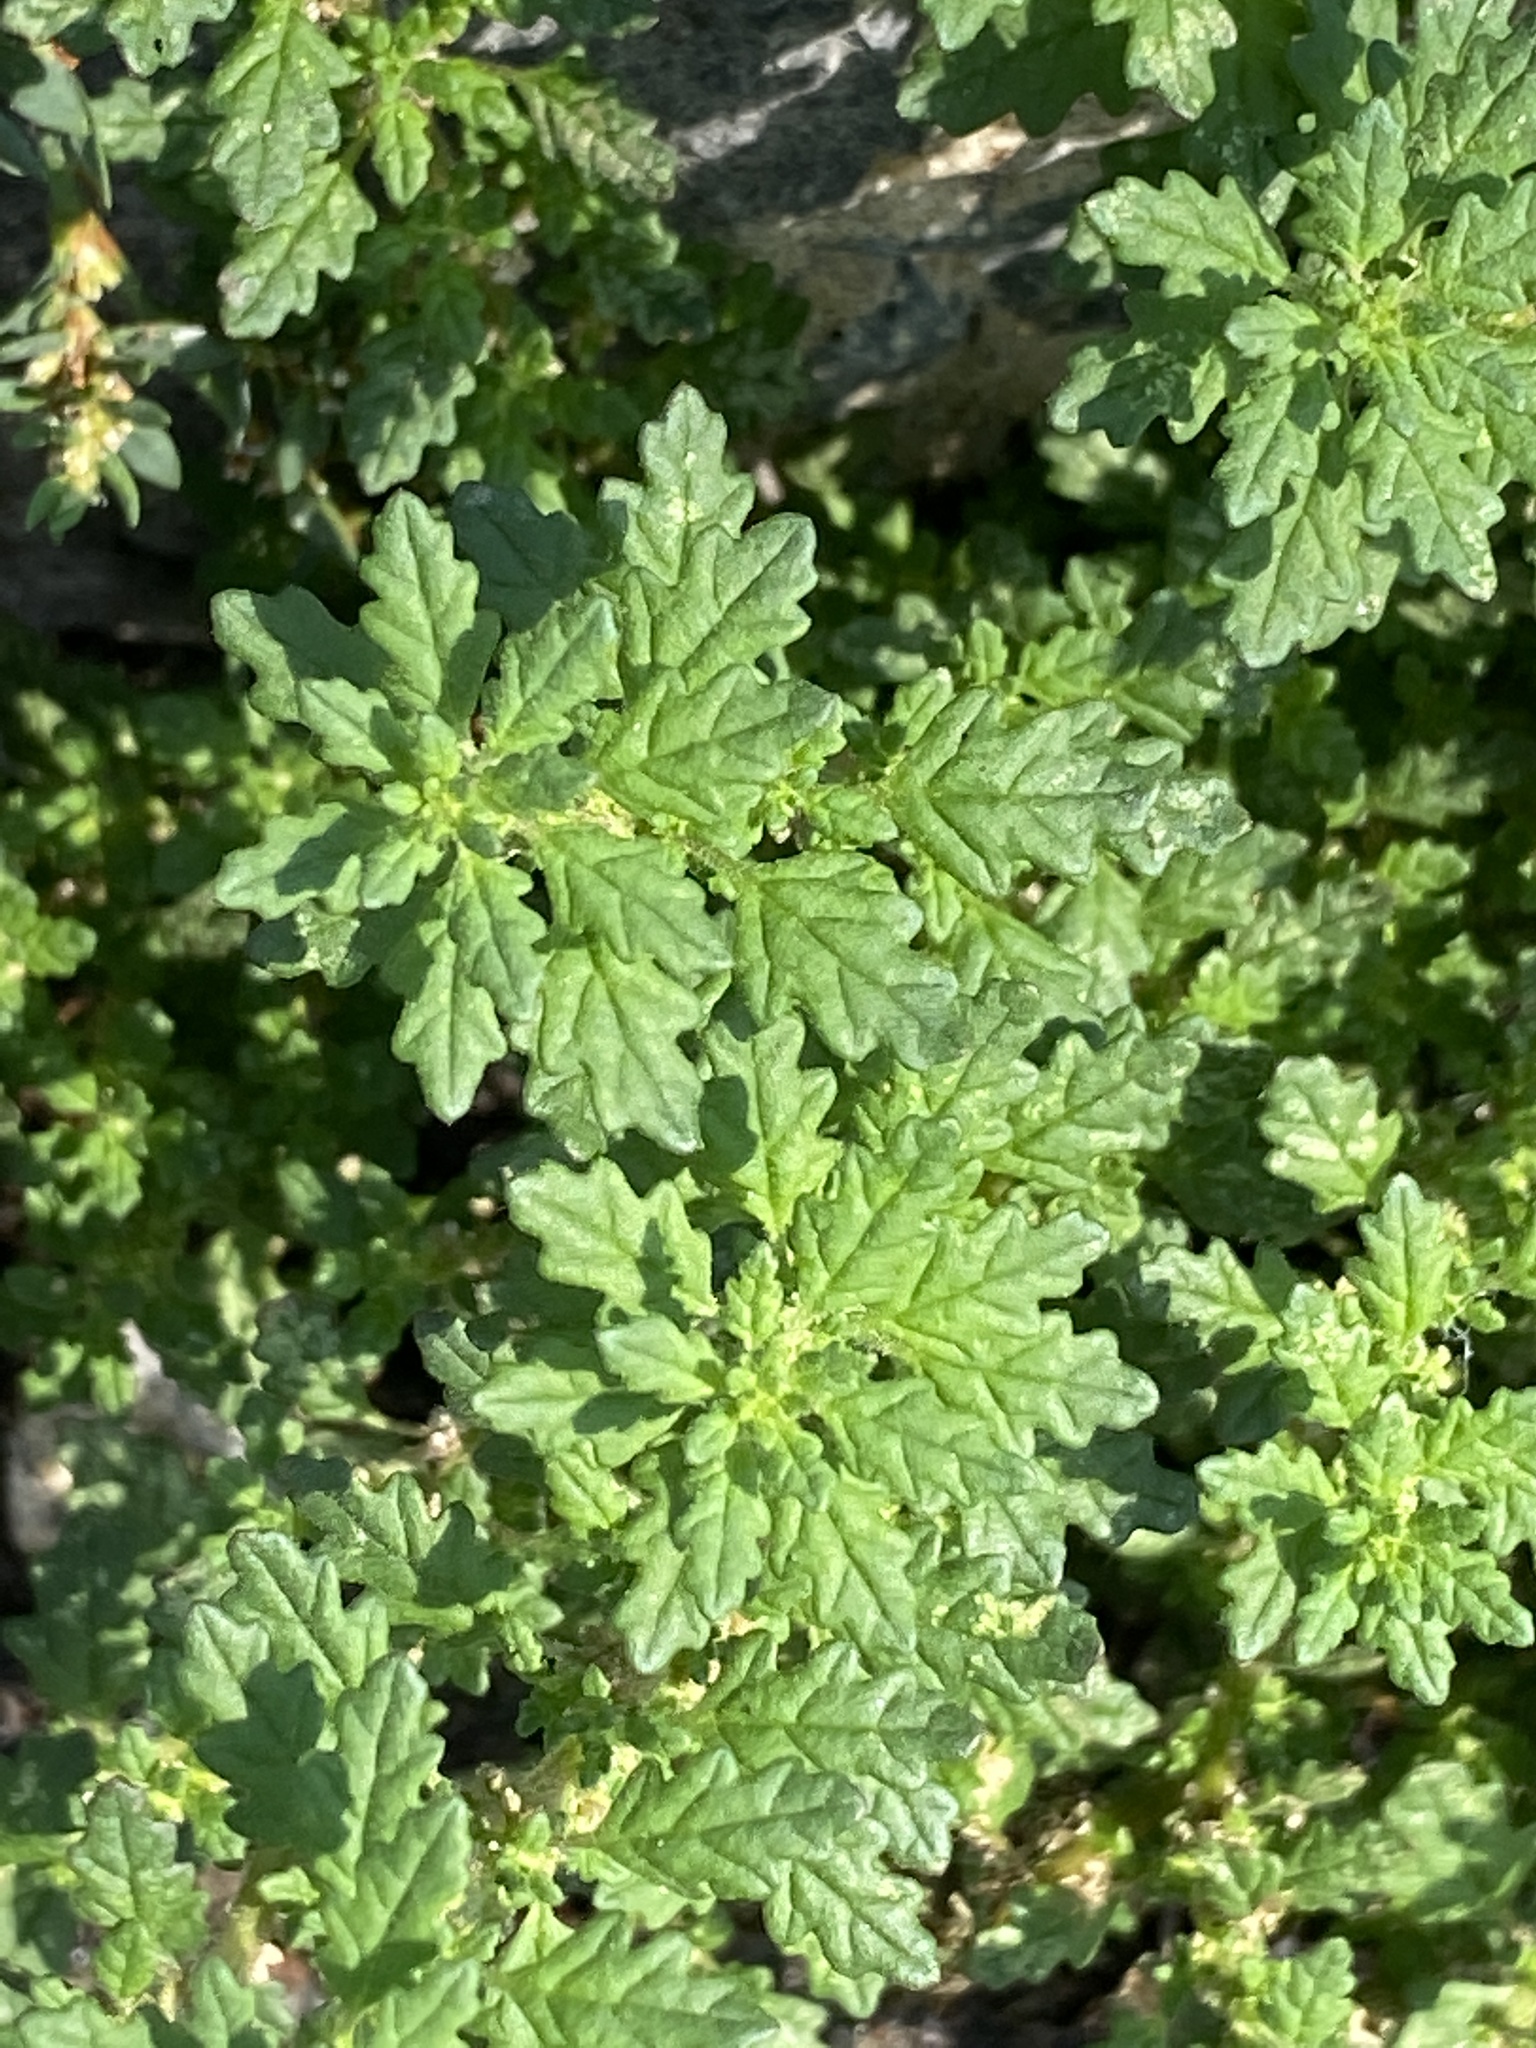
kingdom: Plantae
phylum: Tracheophyta
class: Magnoliopsida
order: Caryophyllales
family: Amaranthaceae
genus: Dysphania
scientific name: Dysphania pumilio
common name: Clammy goosefoot
